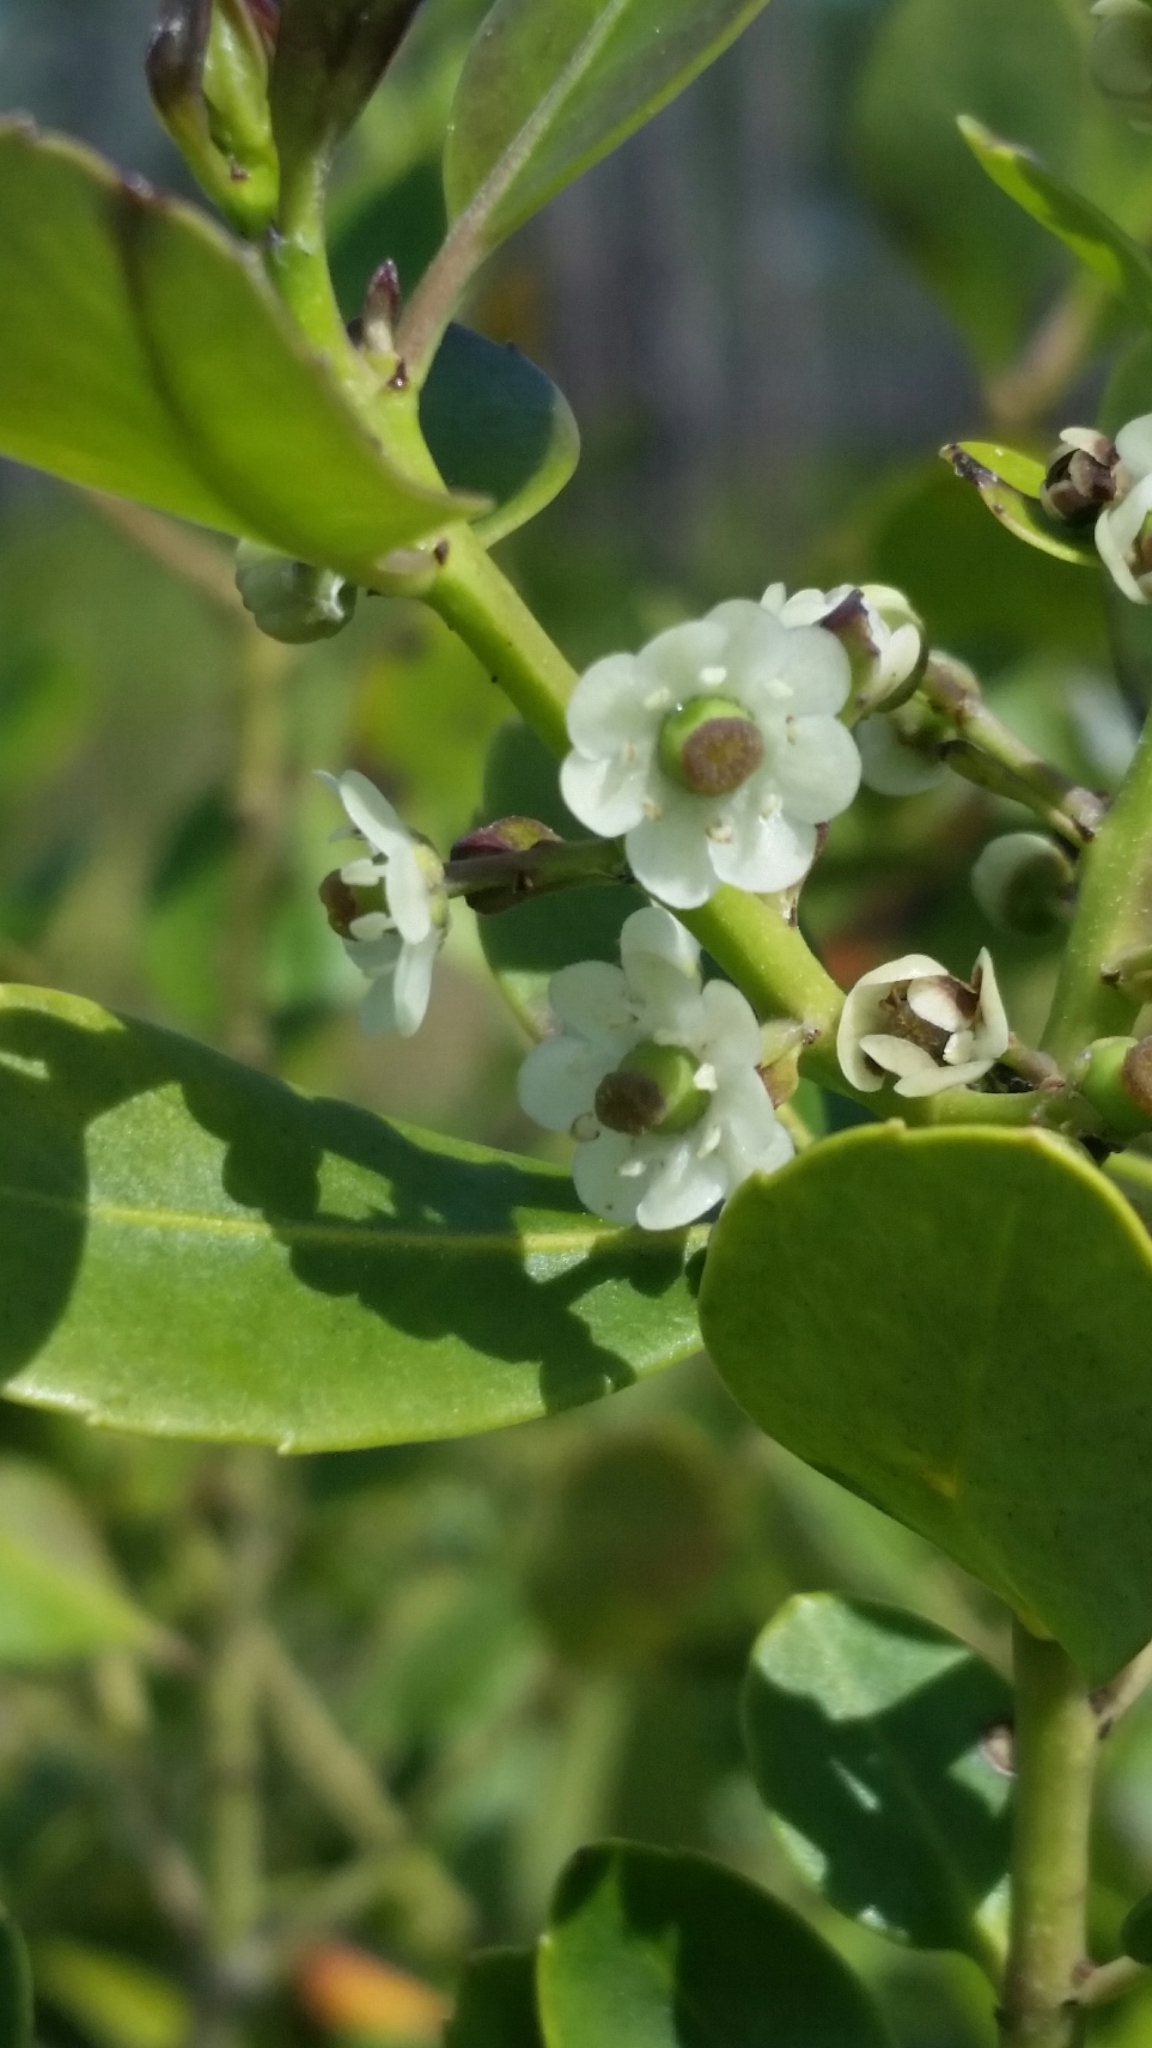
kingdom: Plantae
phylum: Tracheophyta
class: Magnoliopsida
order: Aquifoliales
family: Aquifoliaceae
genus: Ilex
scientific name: Ilex glabra
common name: Bitter gallberry
